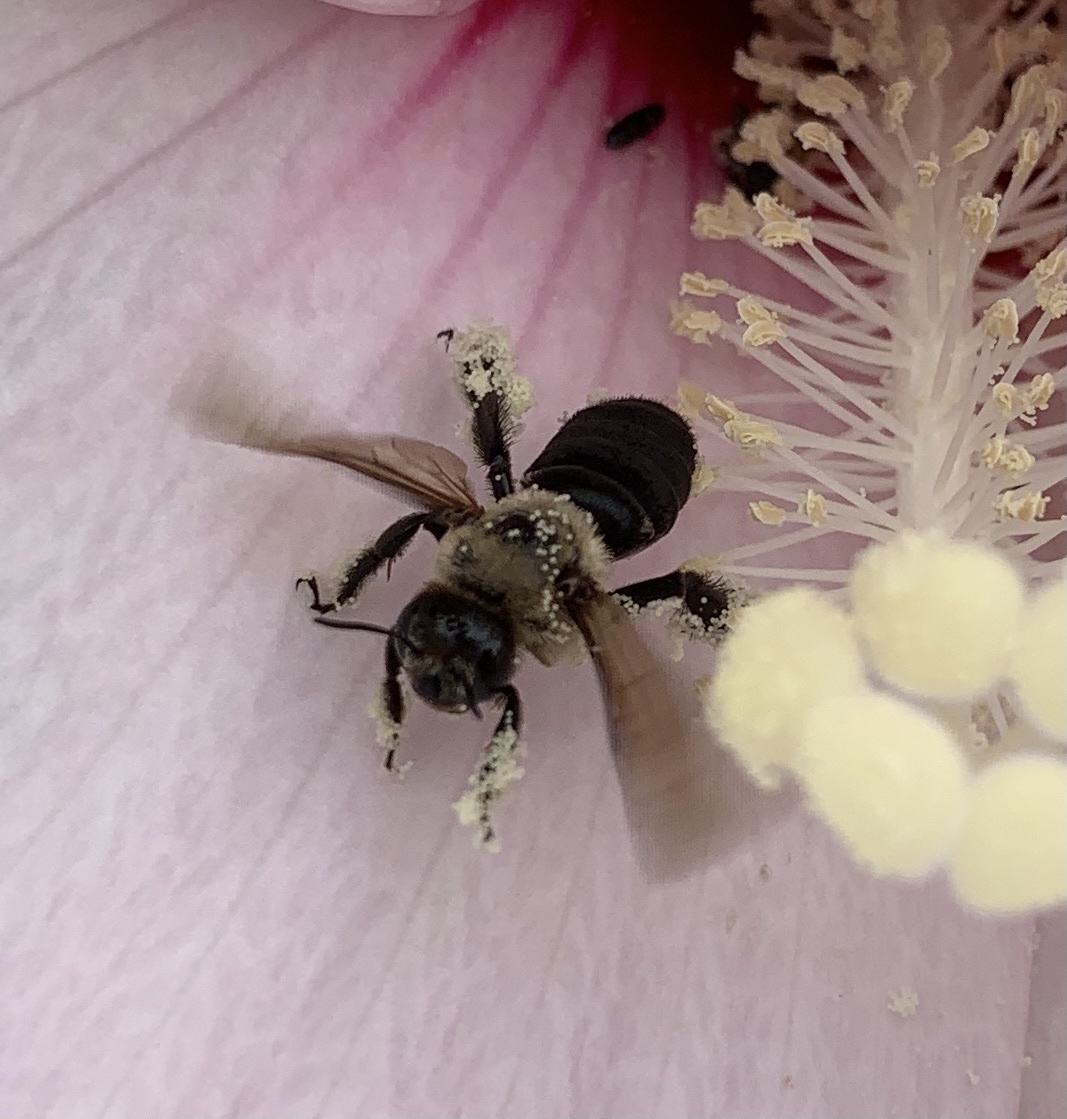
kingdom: Animalia
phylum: Arthropoda
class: Insecta
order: Hymenoptera
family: Apidae
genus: Ptilothrix
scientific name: Ptilothrix bombiformis
